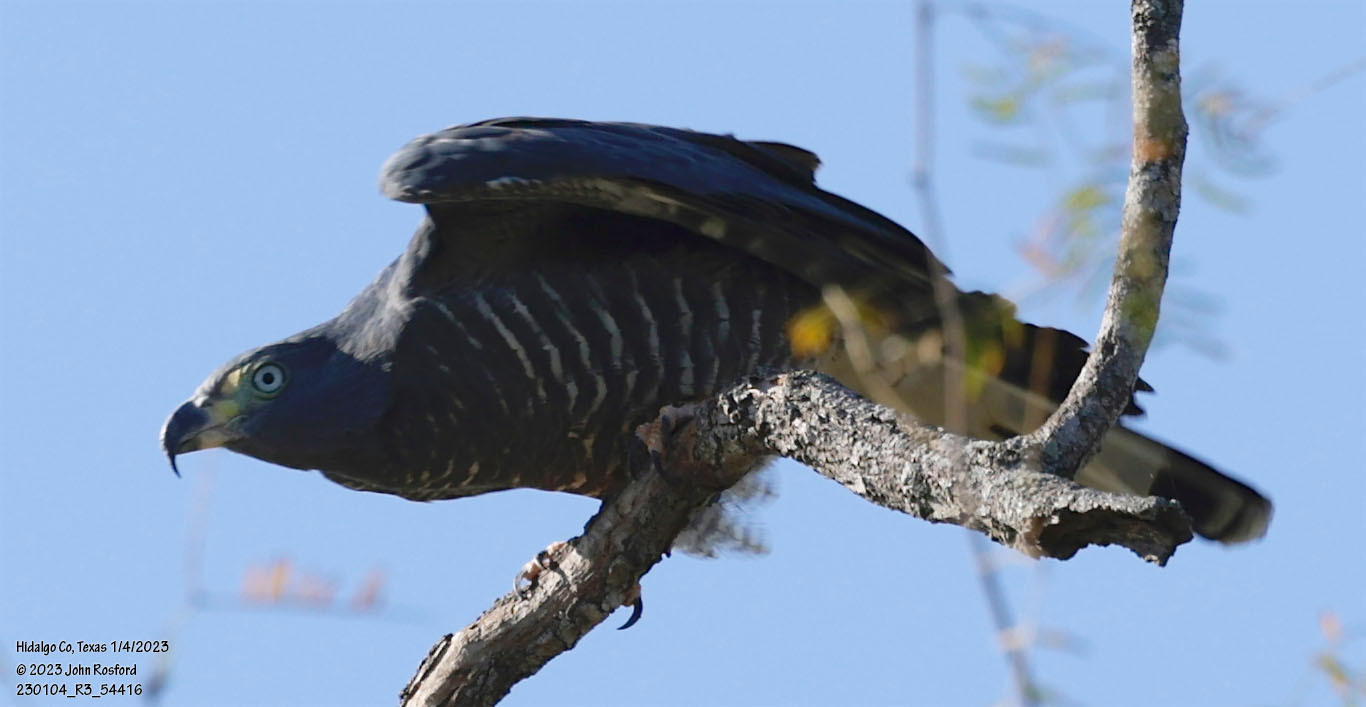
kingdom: Animalia
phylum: Chordata
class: Aves
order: Accipitriformes
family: Accipitridae
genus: Chondrohierax
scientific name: Chondrohierax uncinatus
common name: Hook-billed kite
